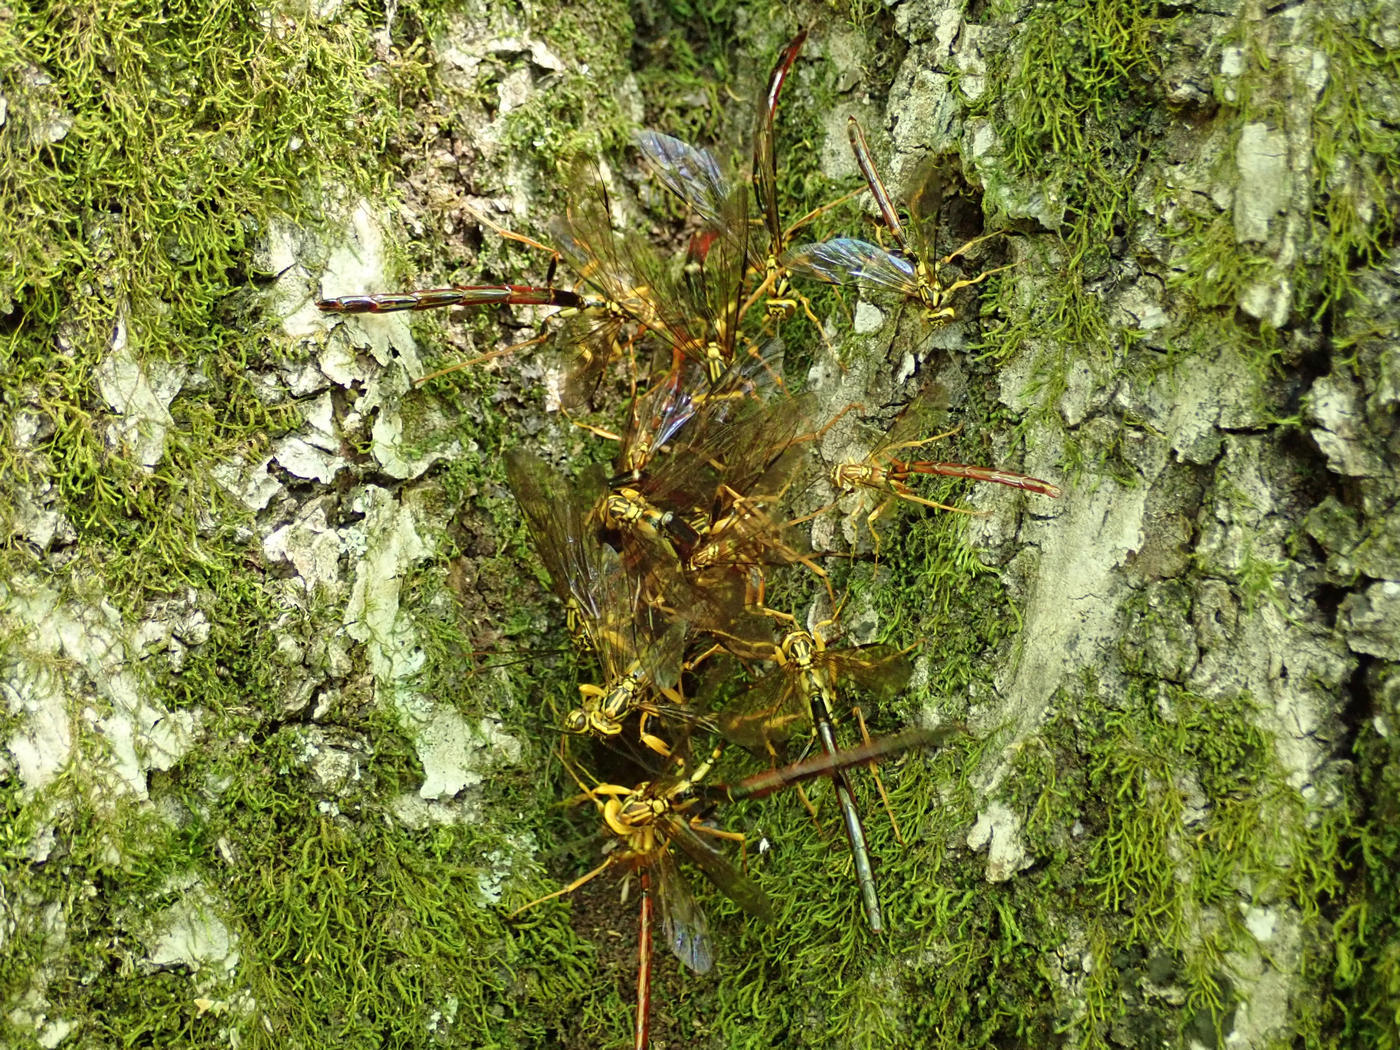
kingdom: Animalia
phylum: Arthropoda
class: Insecta
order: Hymenoptera
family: Ichneumonidae
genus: Megarhyssa
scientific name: Megarhyssa greenei
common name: Greene's giant ichneumonid wasp
